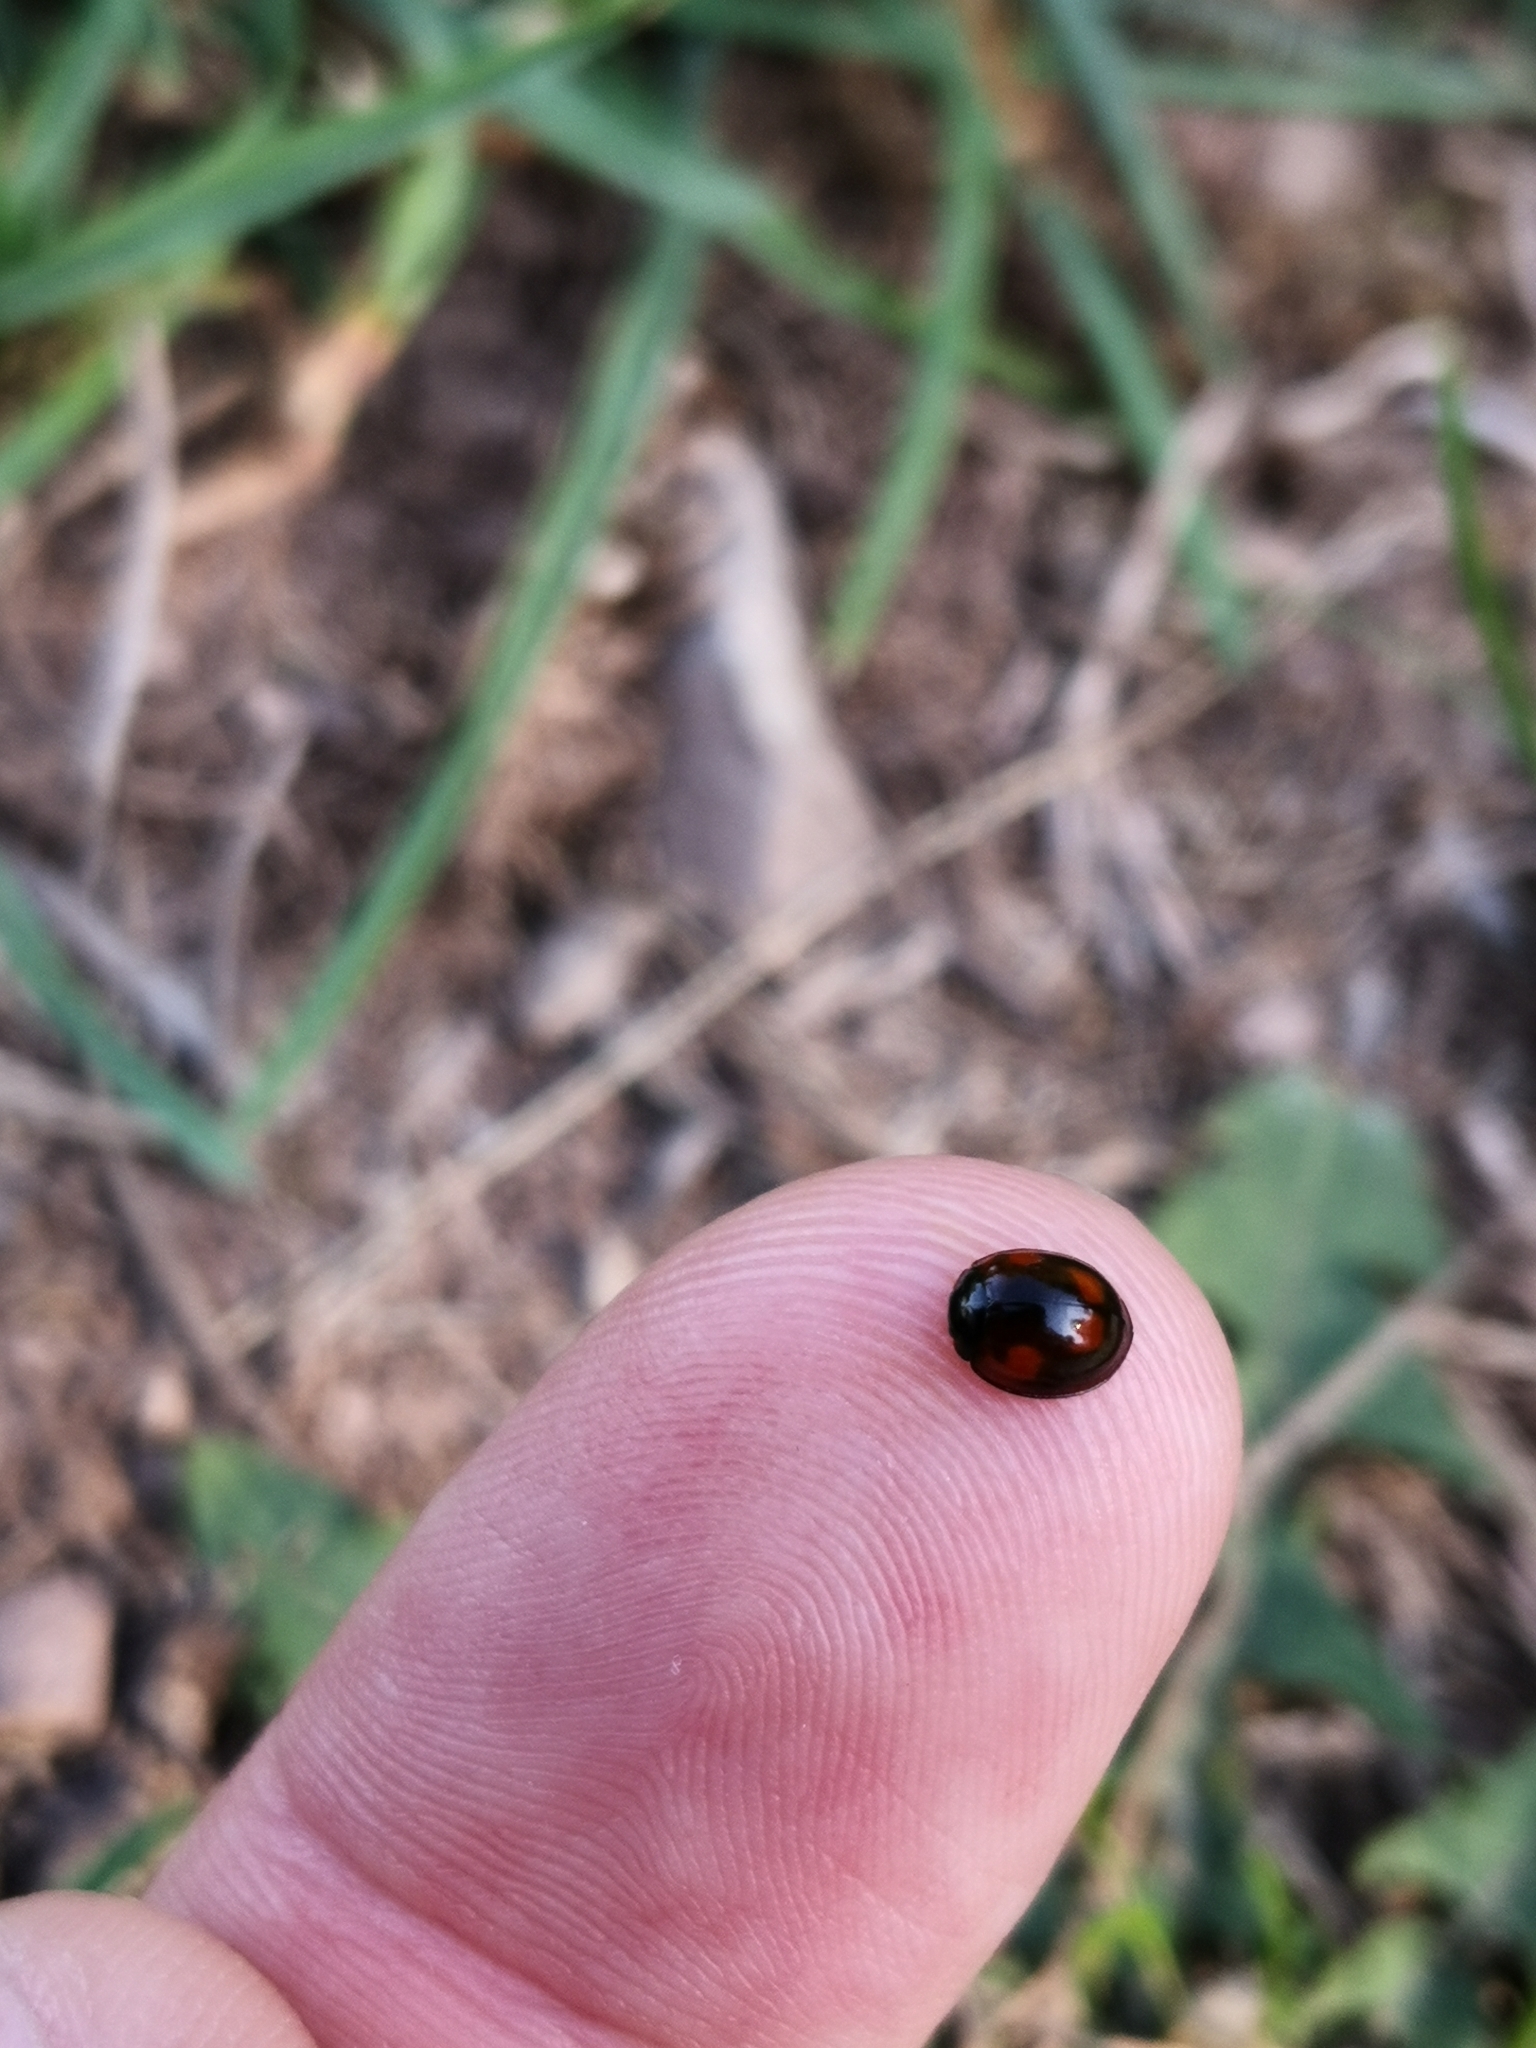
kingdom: Animalia
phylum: Arthropoda
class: Insecta
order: Coleoptera
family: Coccinellidae
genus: Brumus
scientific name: Brumus quadripustulatus
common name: Ladybird beetle
